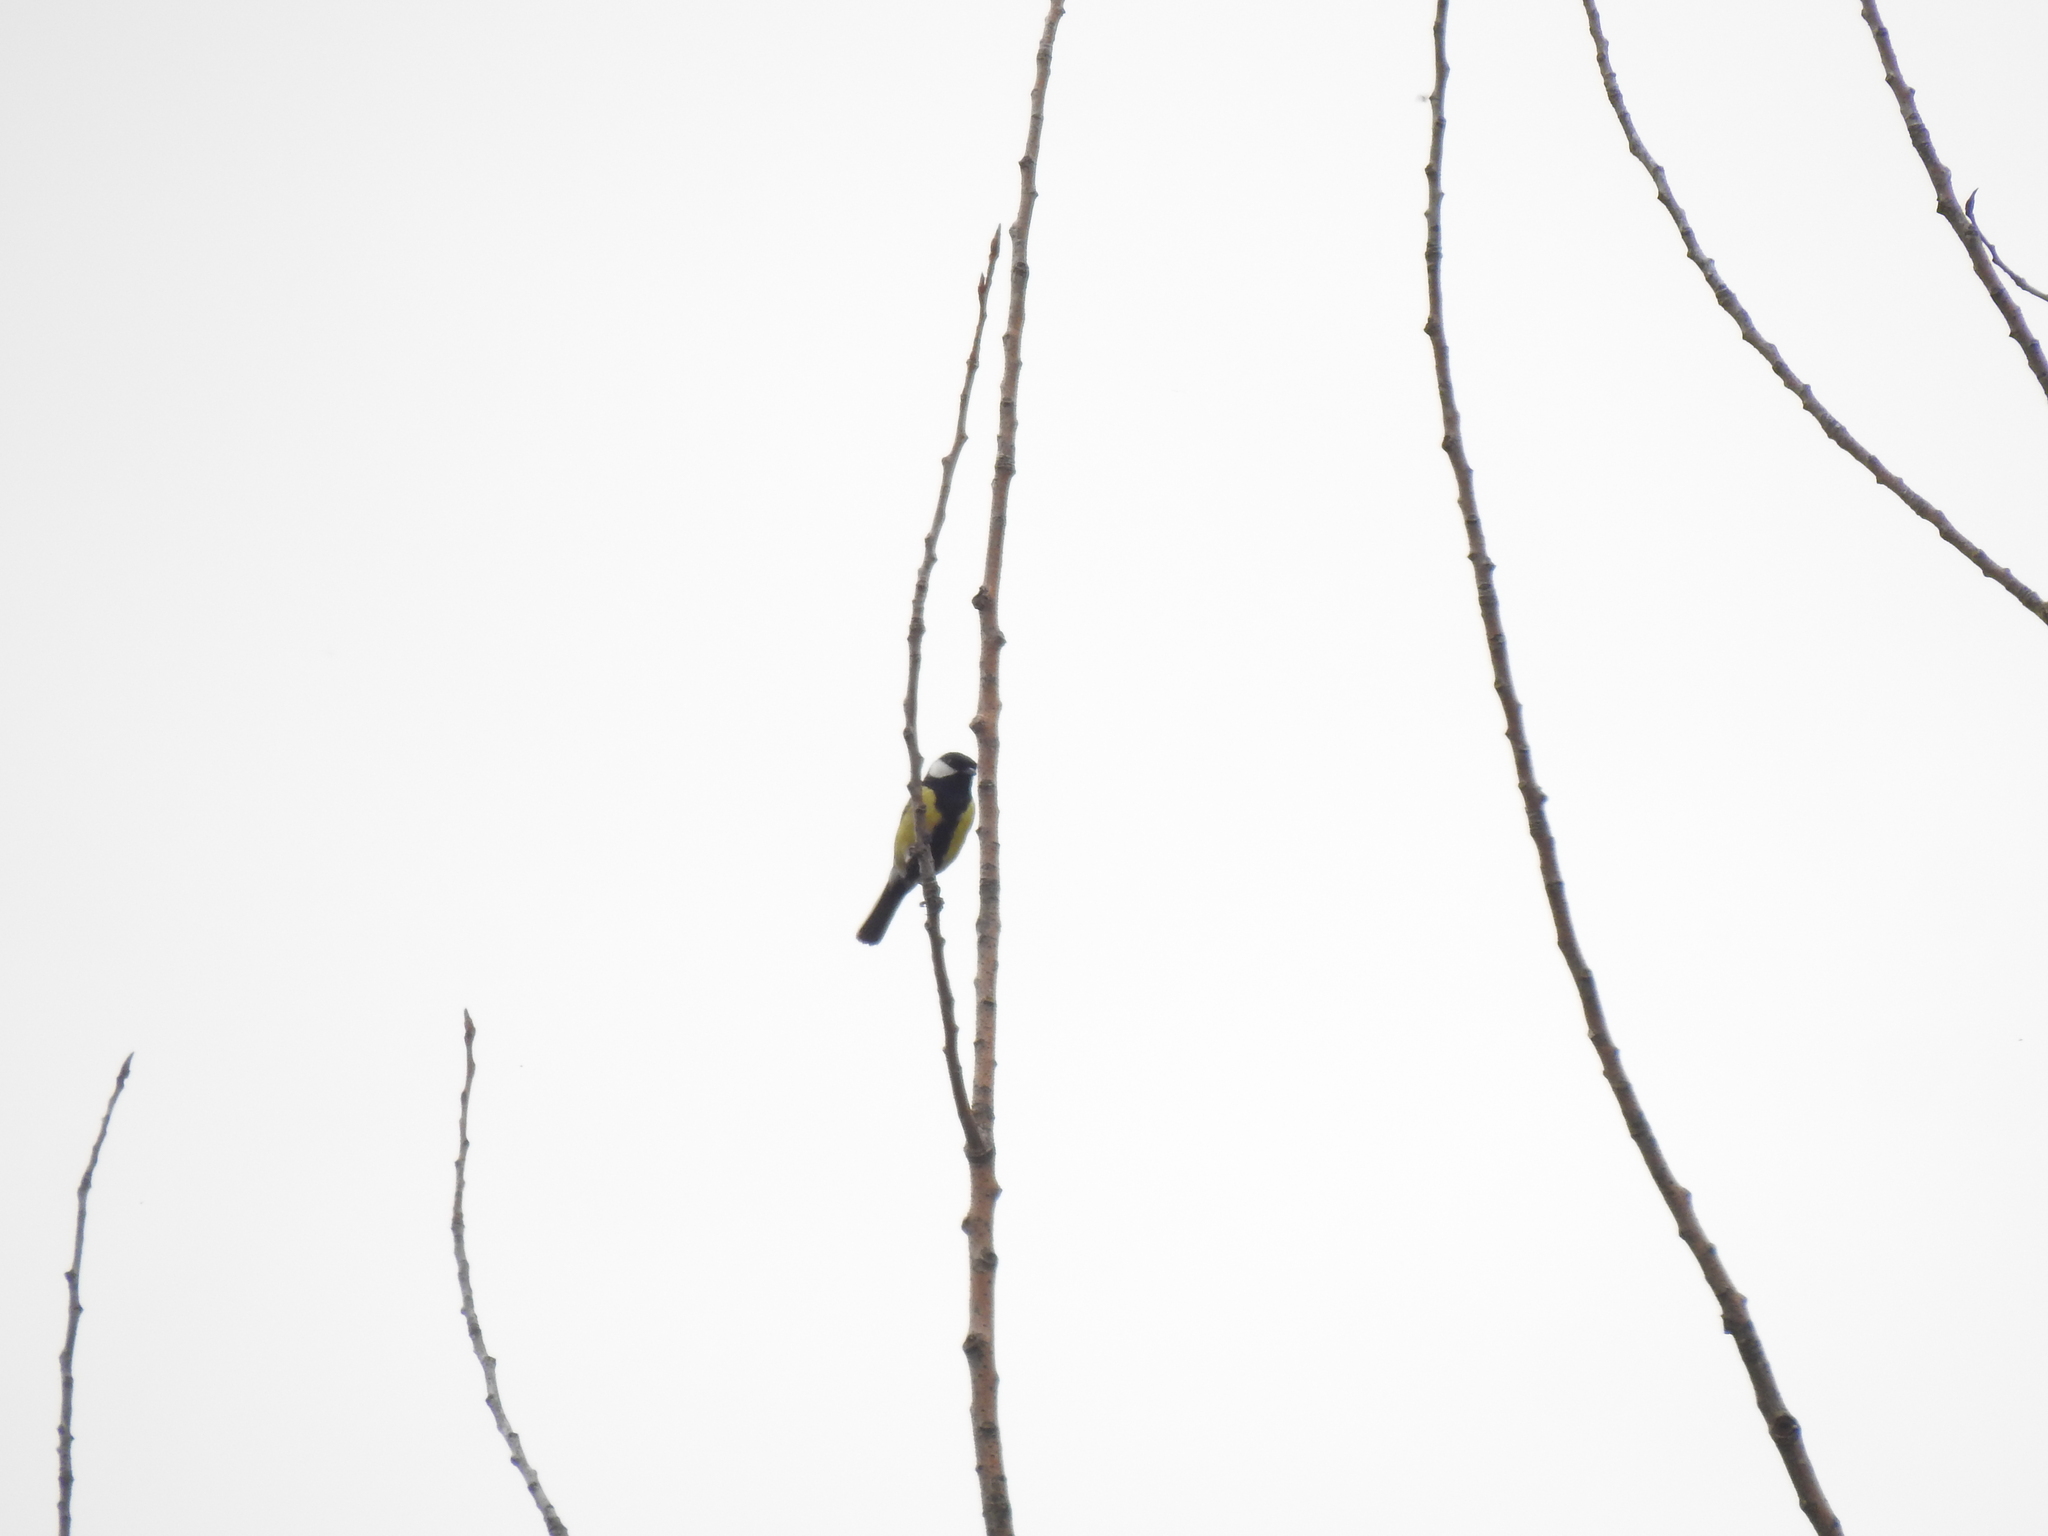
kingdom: Animalia
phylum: Chordata
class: Aves
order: Passeriformes
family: Paridae
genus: Parus
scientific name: Parus major
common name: Great tit
